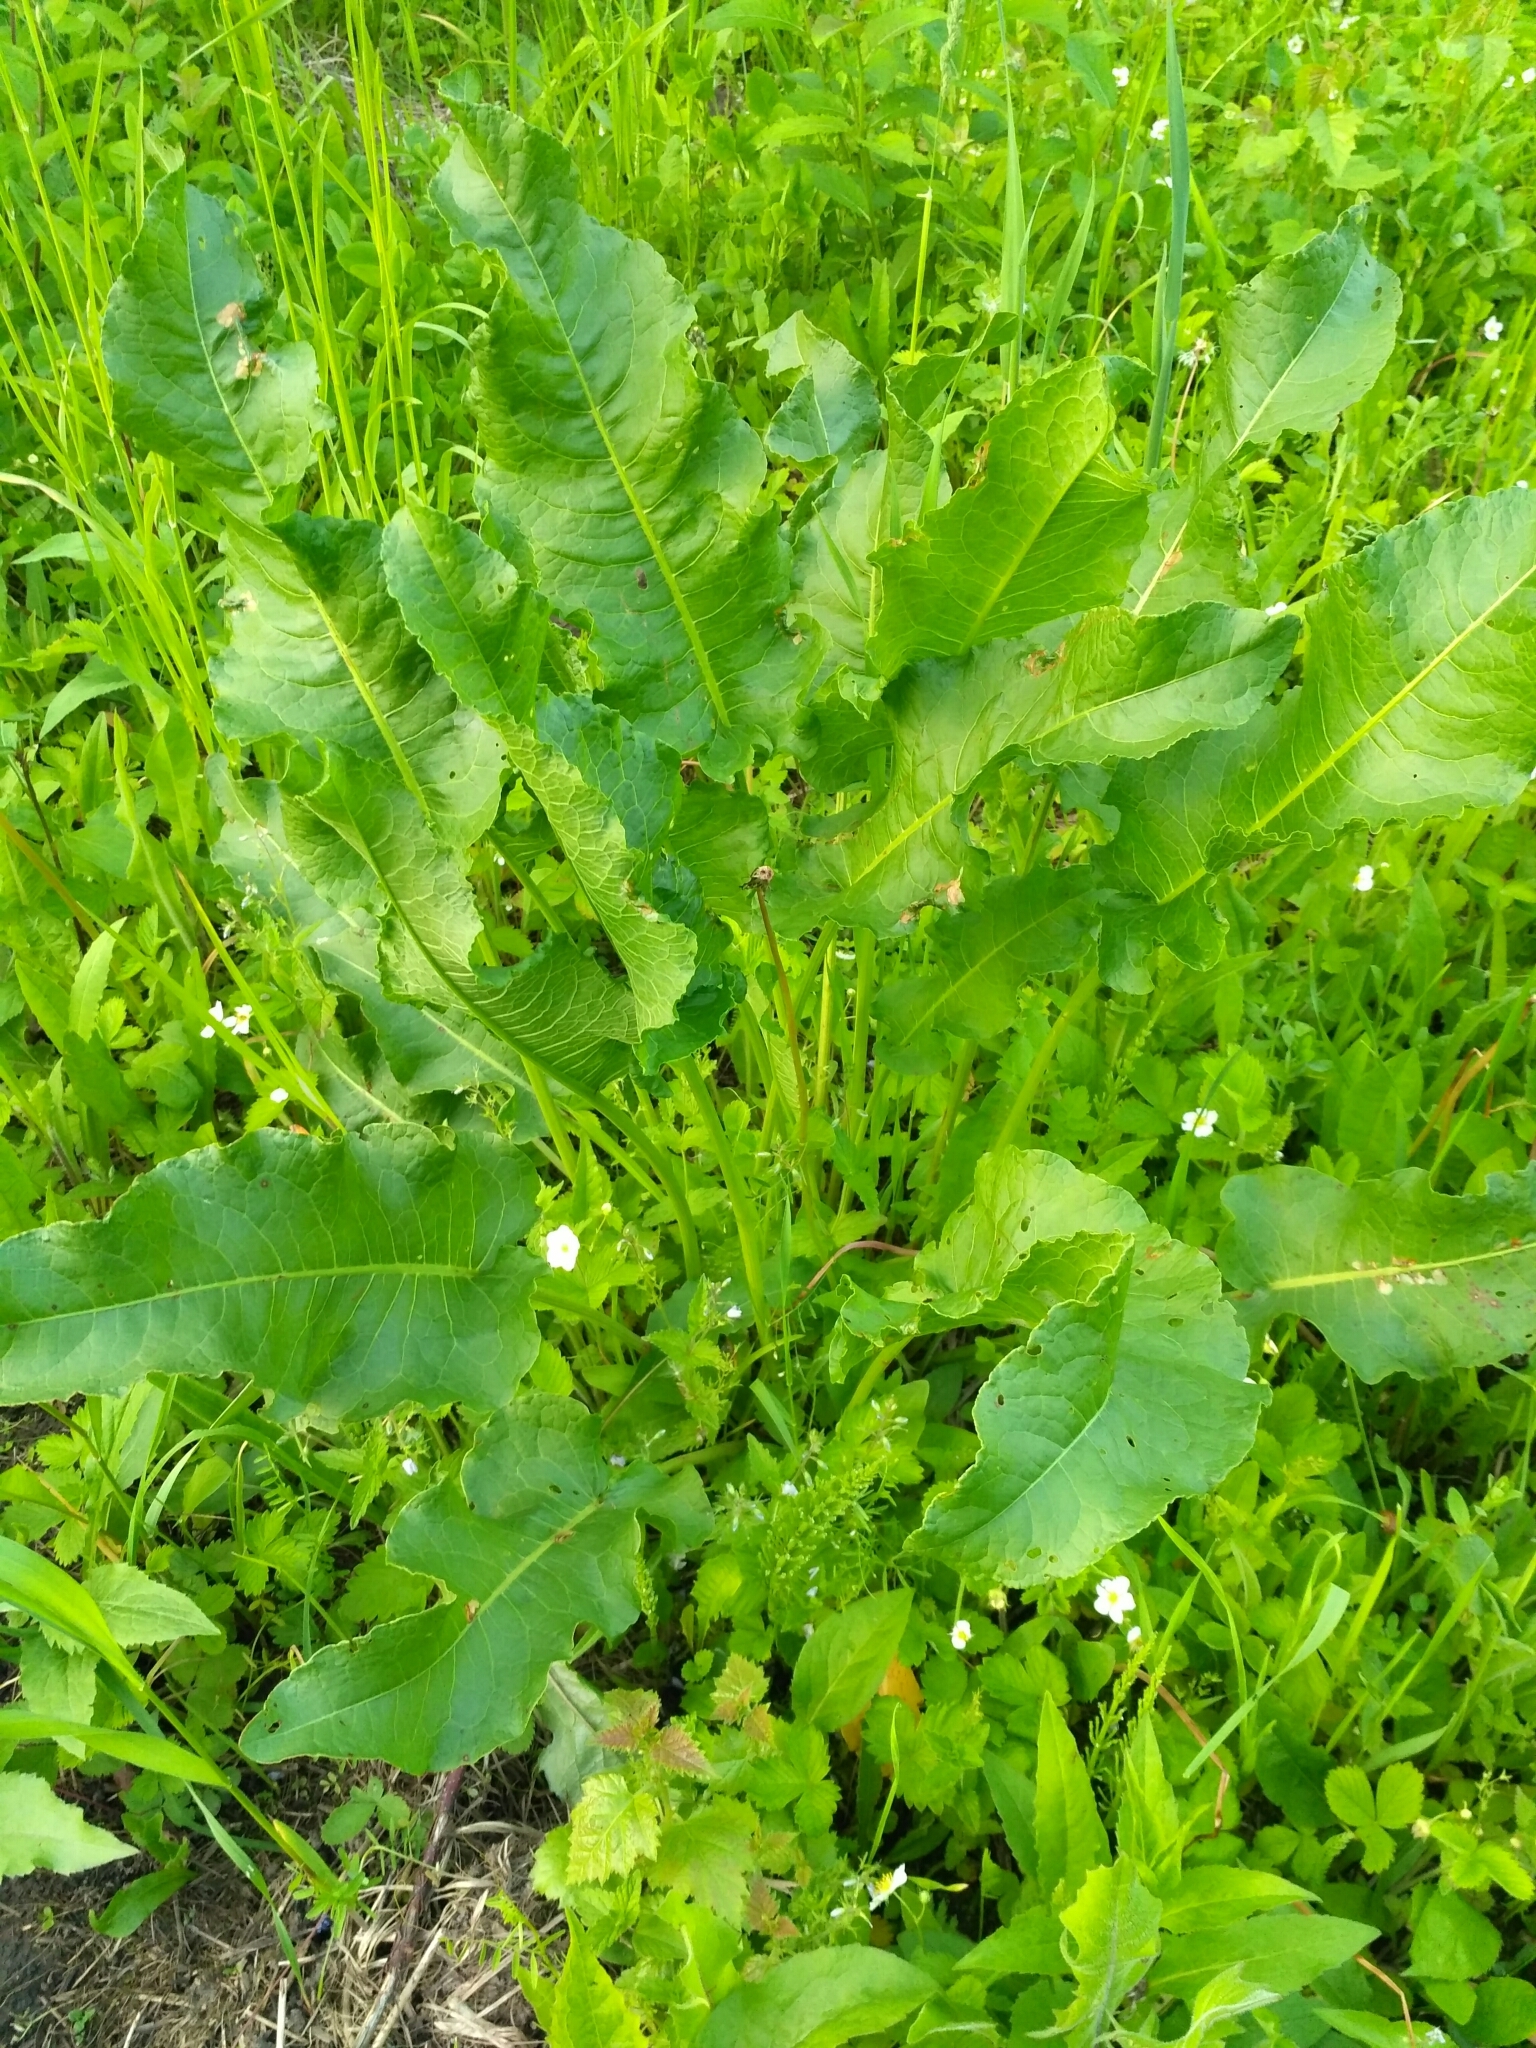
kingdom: Plantae
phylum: Tracheophyta
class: Magnoliopsida
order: Caryophyllales
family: Polygonaceae
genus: Rumex
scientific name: Rumex confertus
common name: Russian dock
